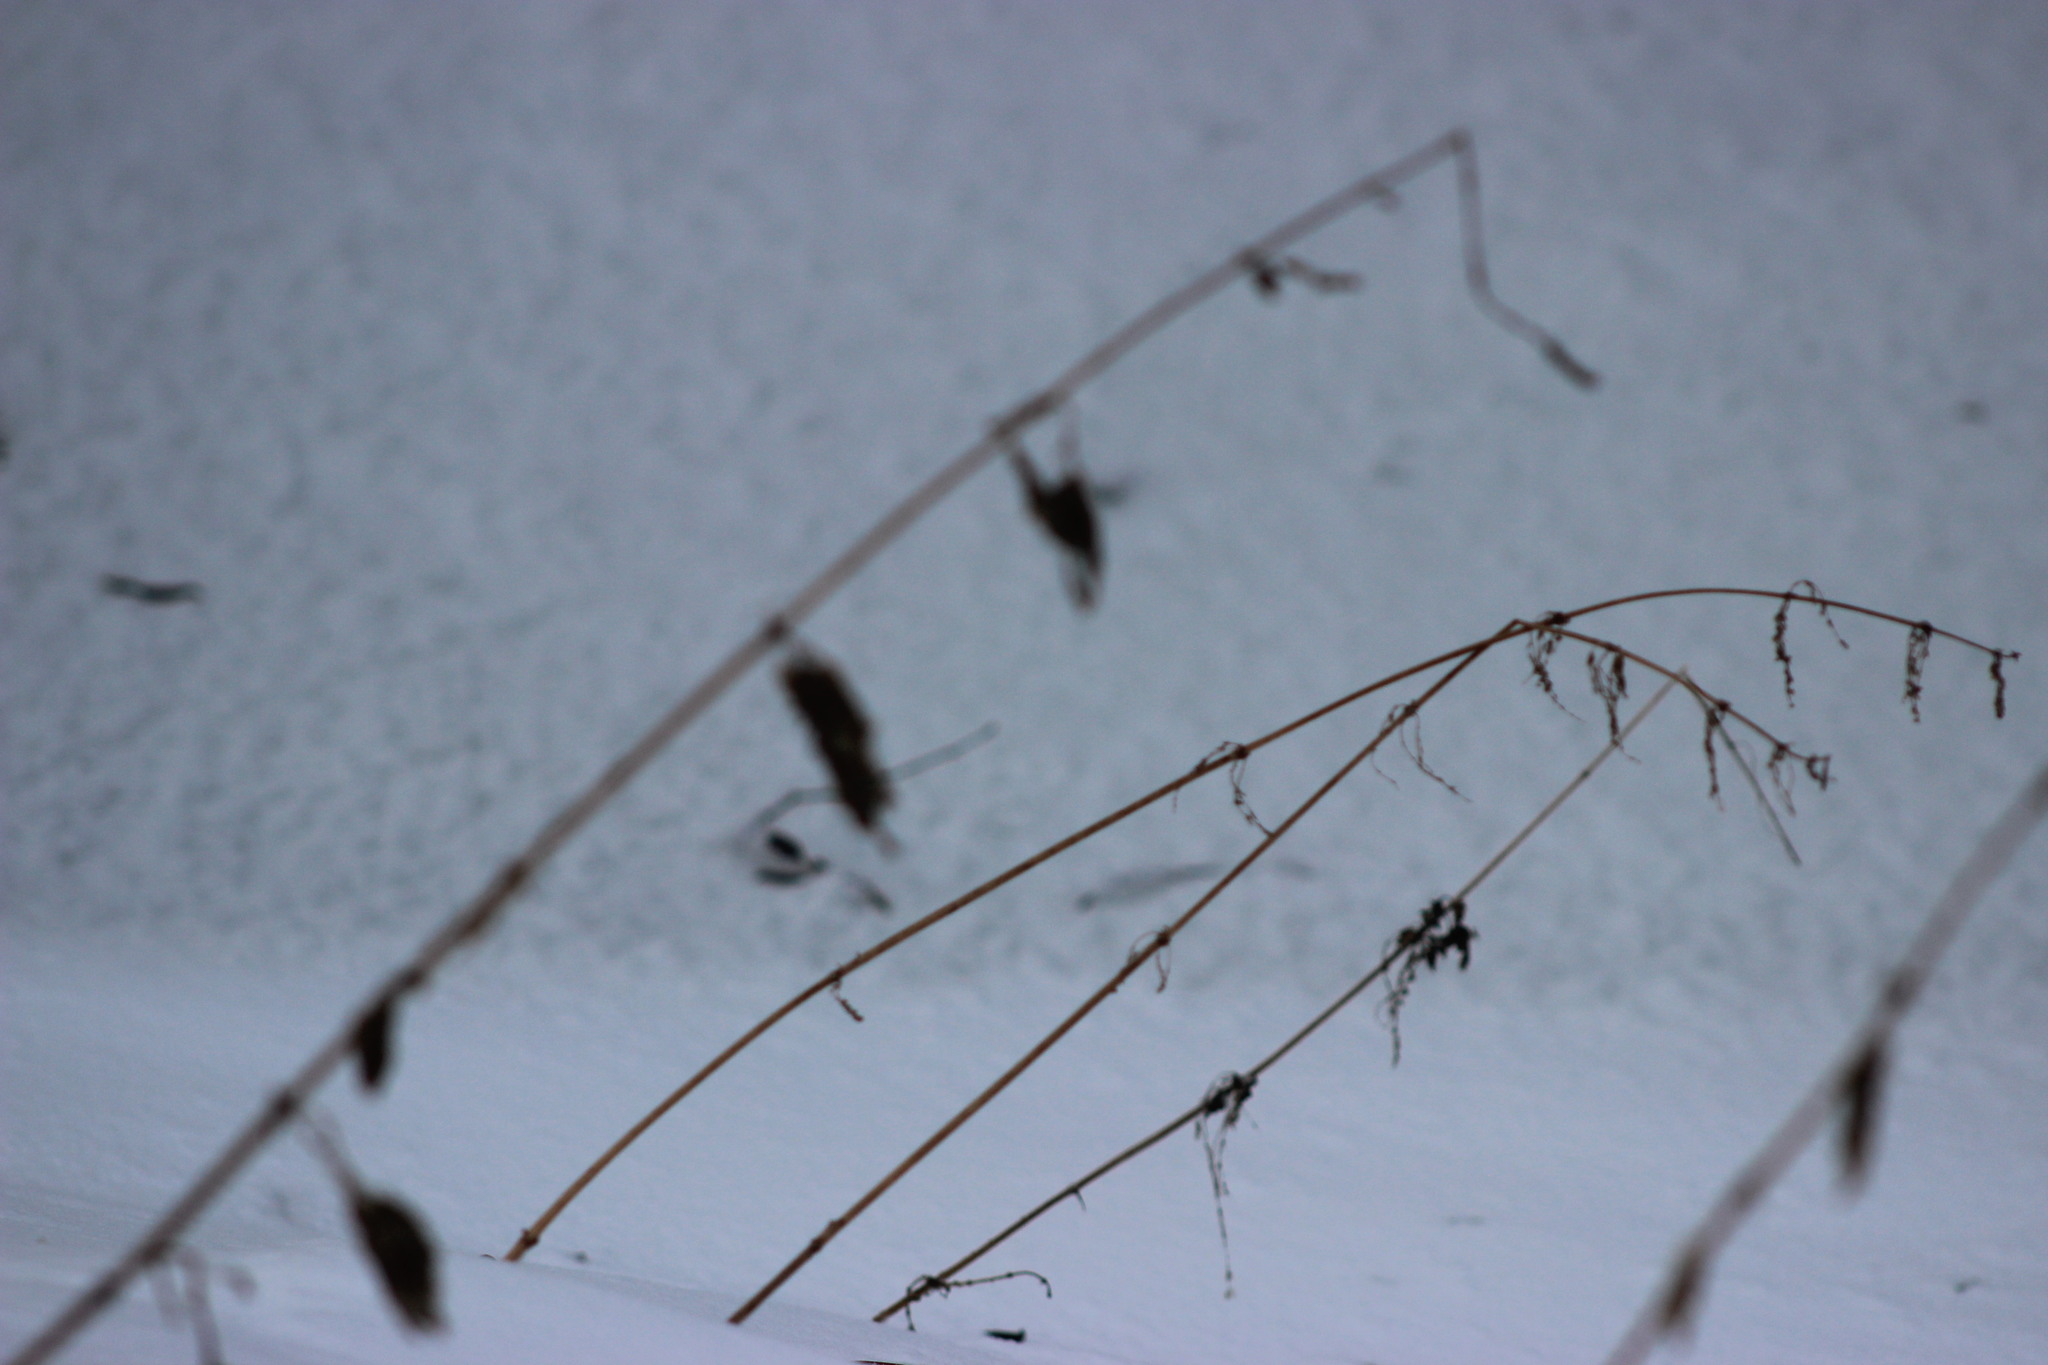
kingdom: Plantae
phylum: Tracheophyta
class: Magnoliopsida
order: Rosales
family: Urticaceae
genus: Urtica
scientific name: Urtica dioica
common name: Common nettle
